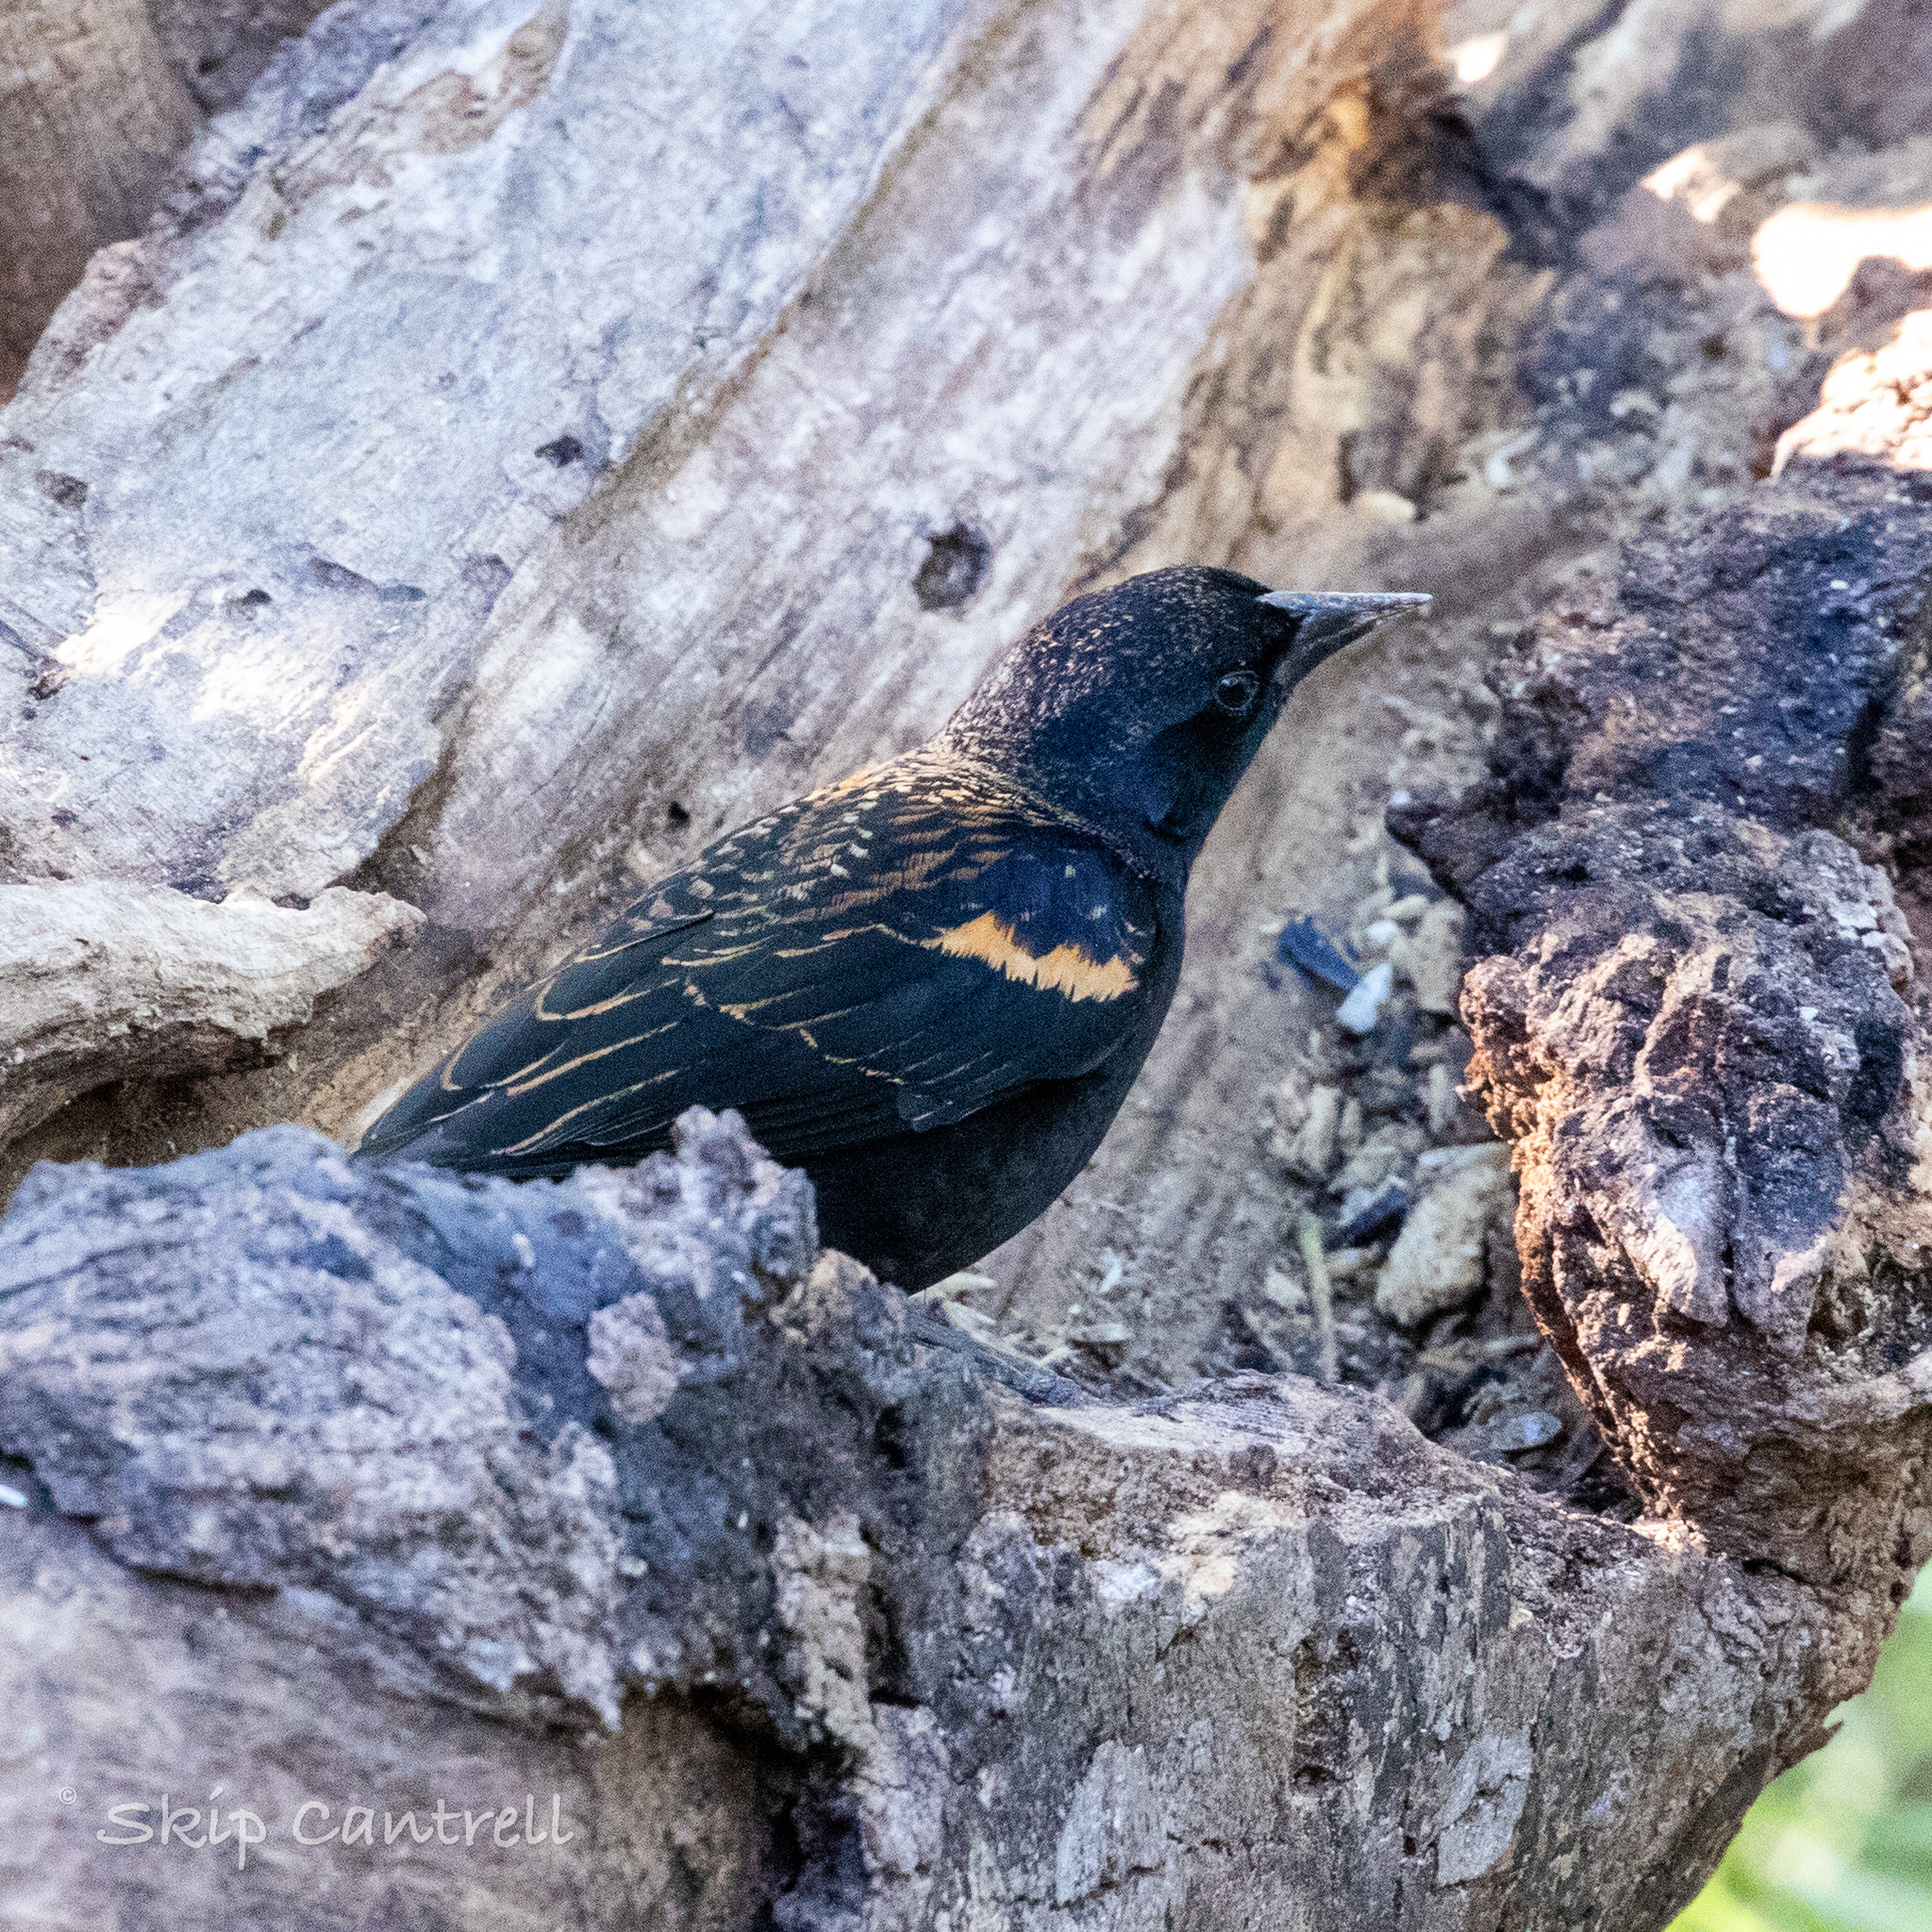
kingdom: Animalia
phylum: Chordata
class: Aves
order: Passeriformes
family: Icteridae
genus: Agelaius
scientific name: Agelaius phoeniceus
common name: Red-winged blackbird
